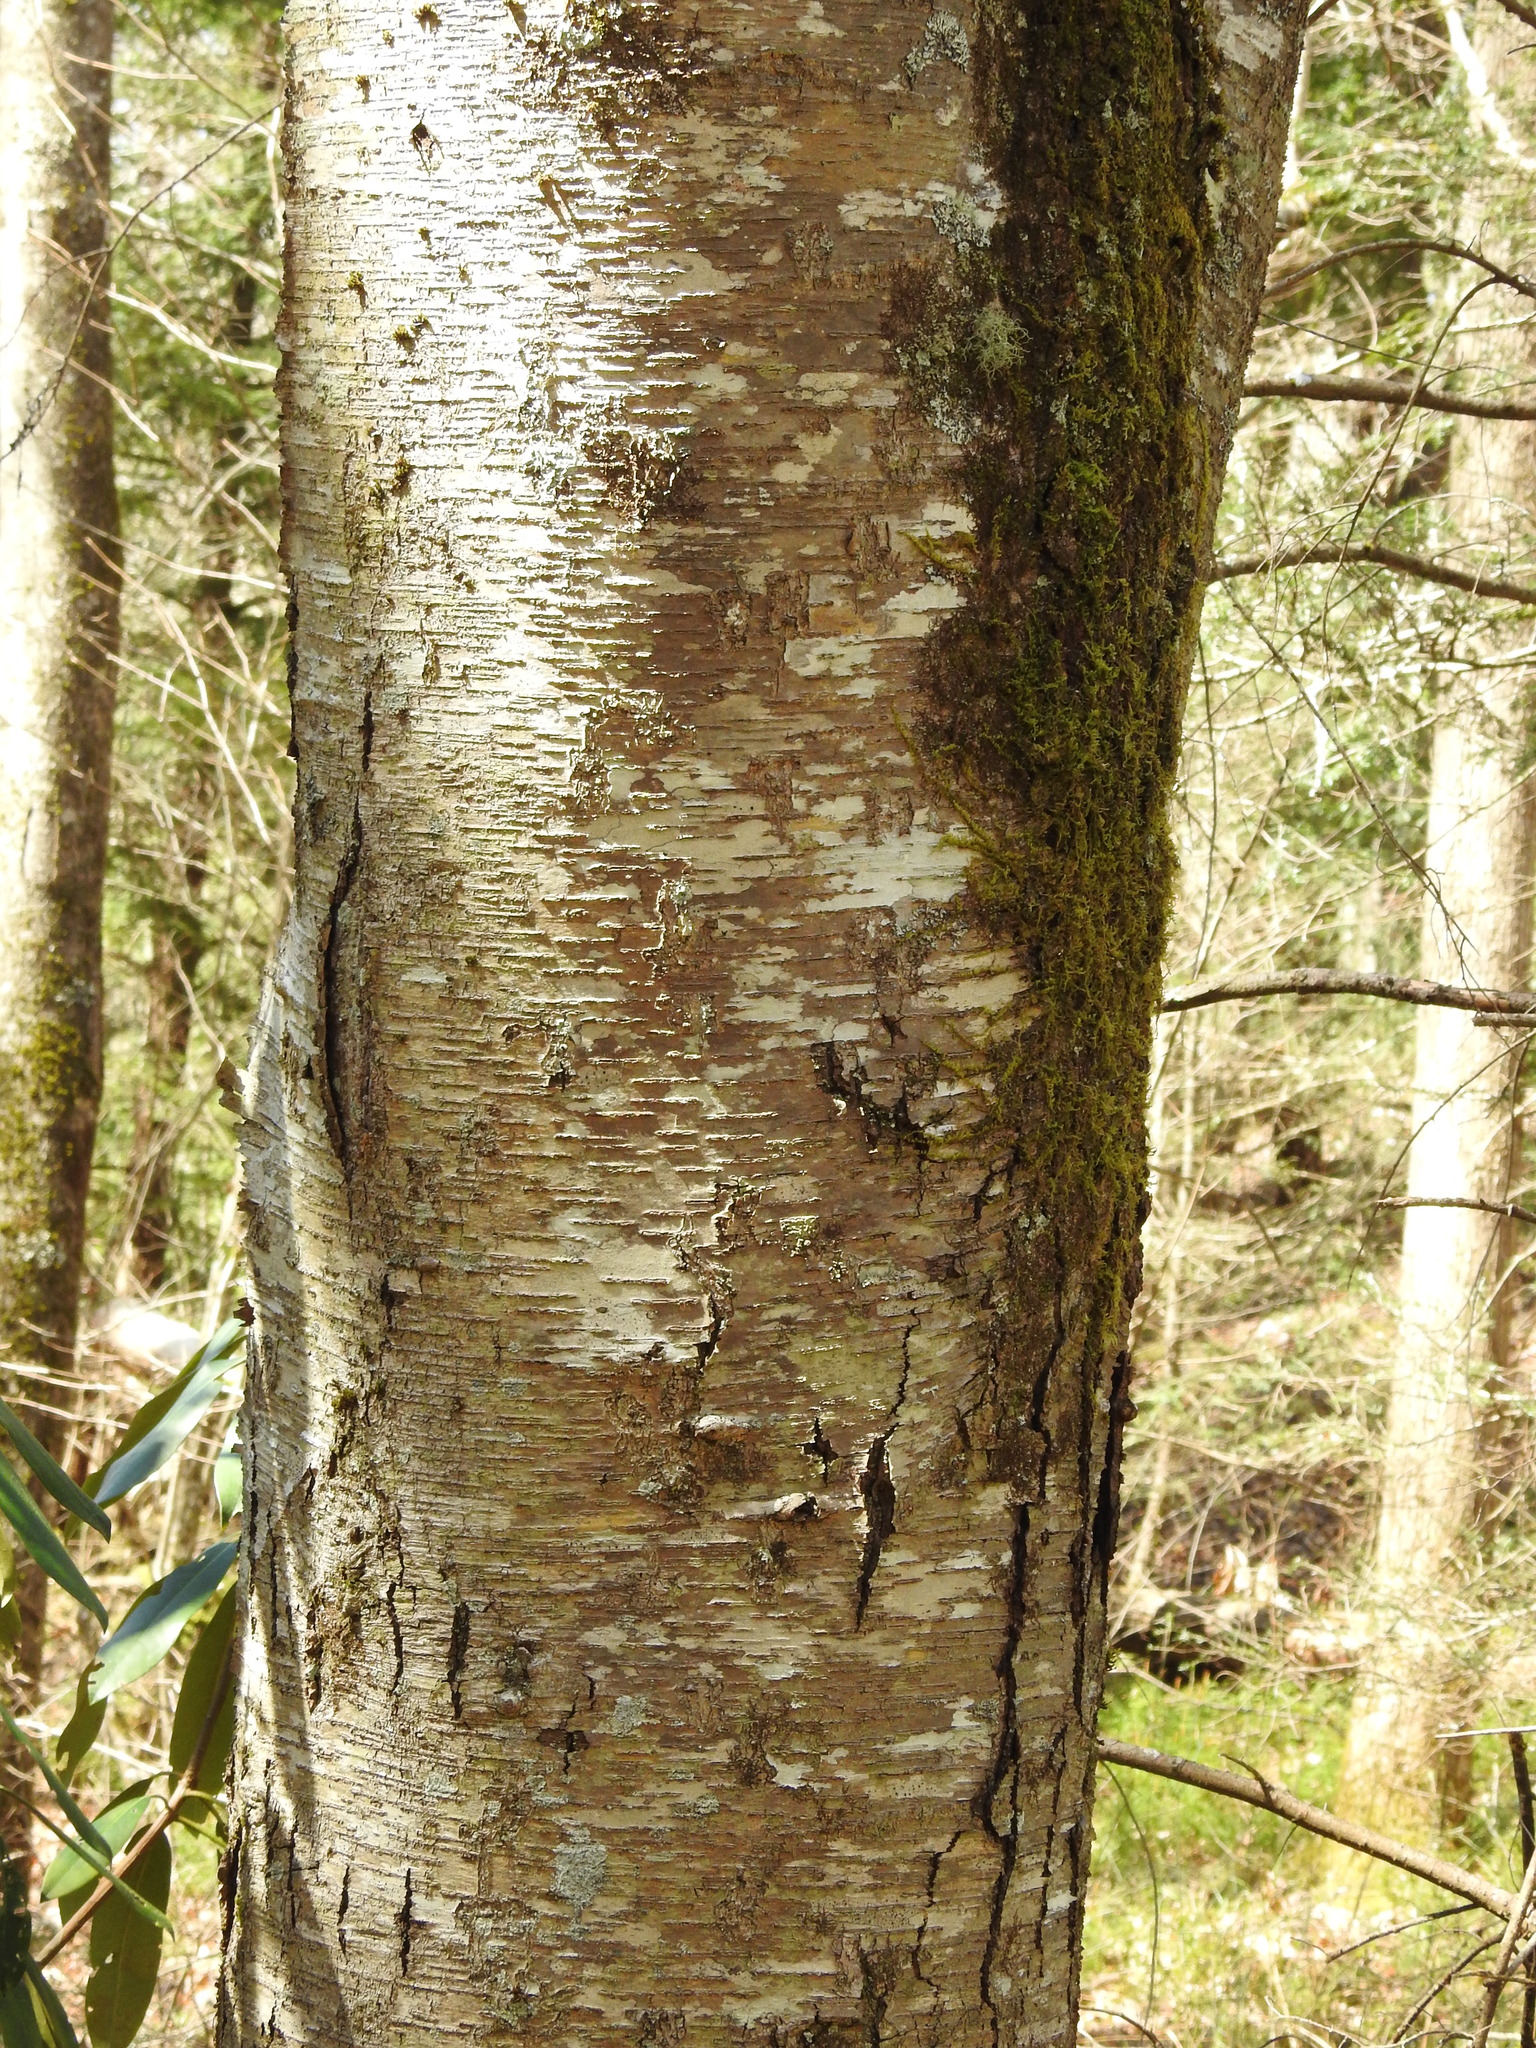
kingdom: Plantae
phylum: Tracheophyta
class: Magnoliopsida
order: Fagales
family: Betulaceae
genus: Betula
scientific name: Betula lenta
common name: Black birch
